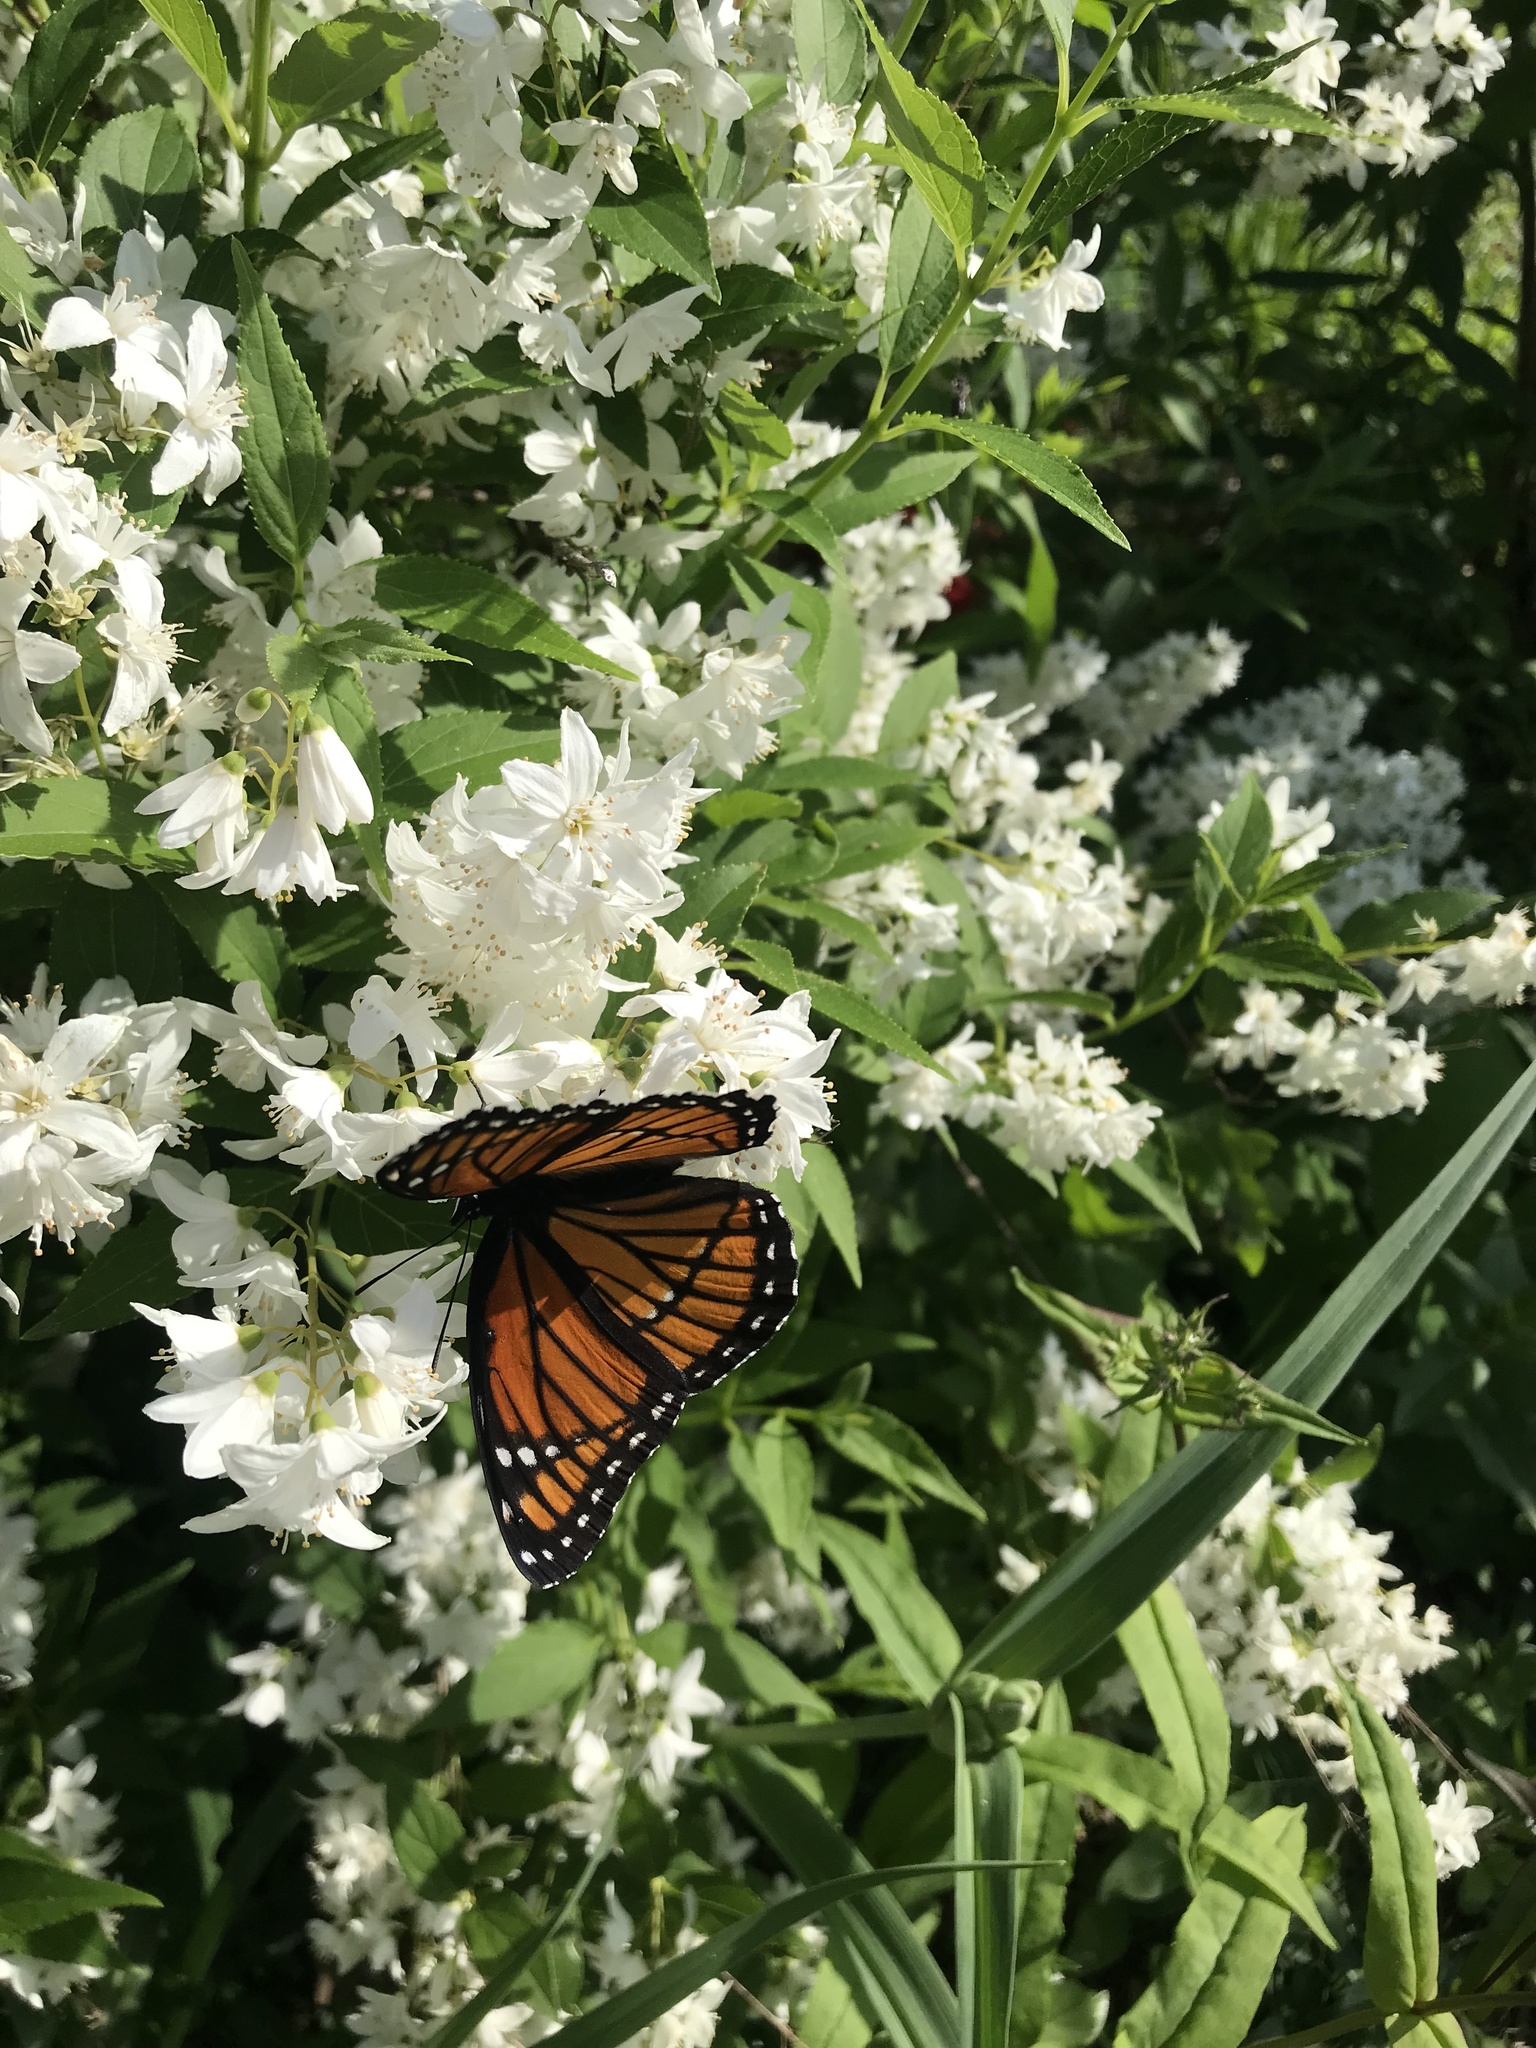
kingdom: Animalia
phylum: Arthropoda
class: Insecta
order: Lepidoptera
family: Nymphalidae
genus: Limenitis
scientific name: Limenitis archippus
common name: Viceroy
